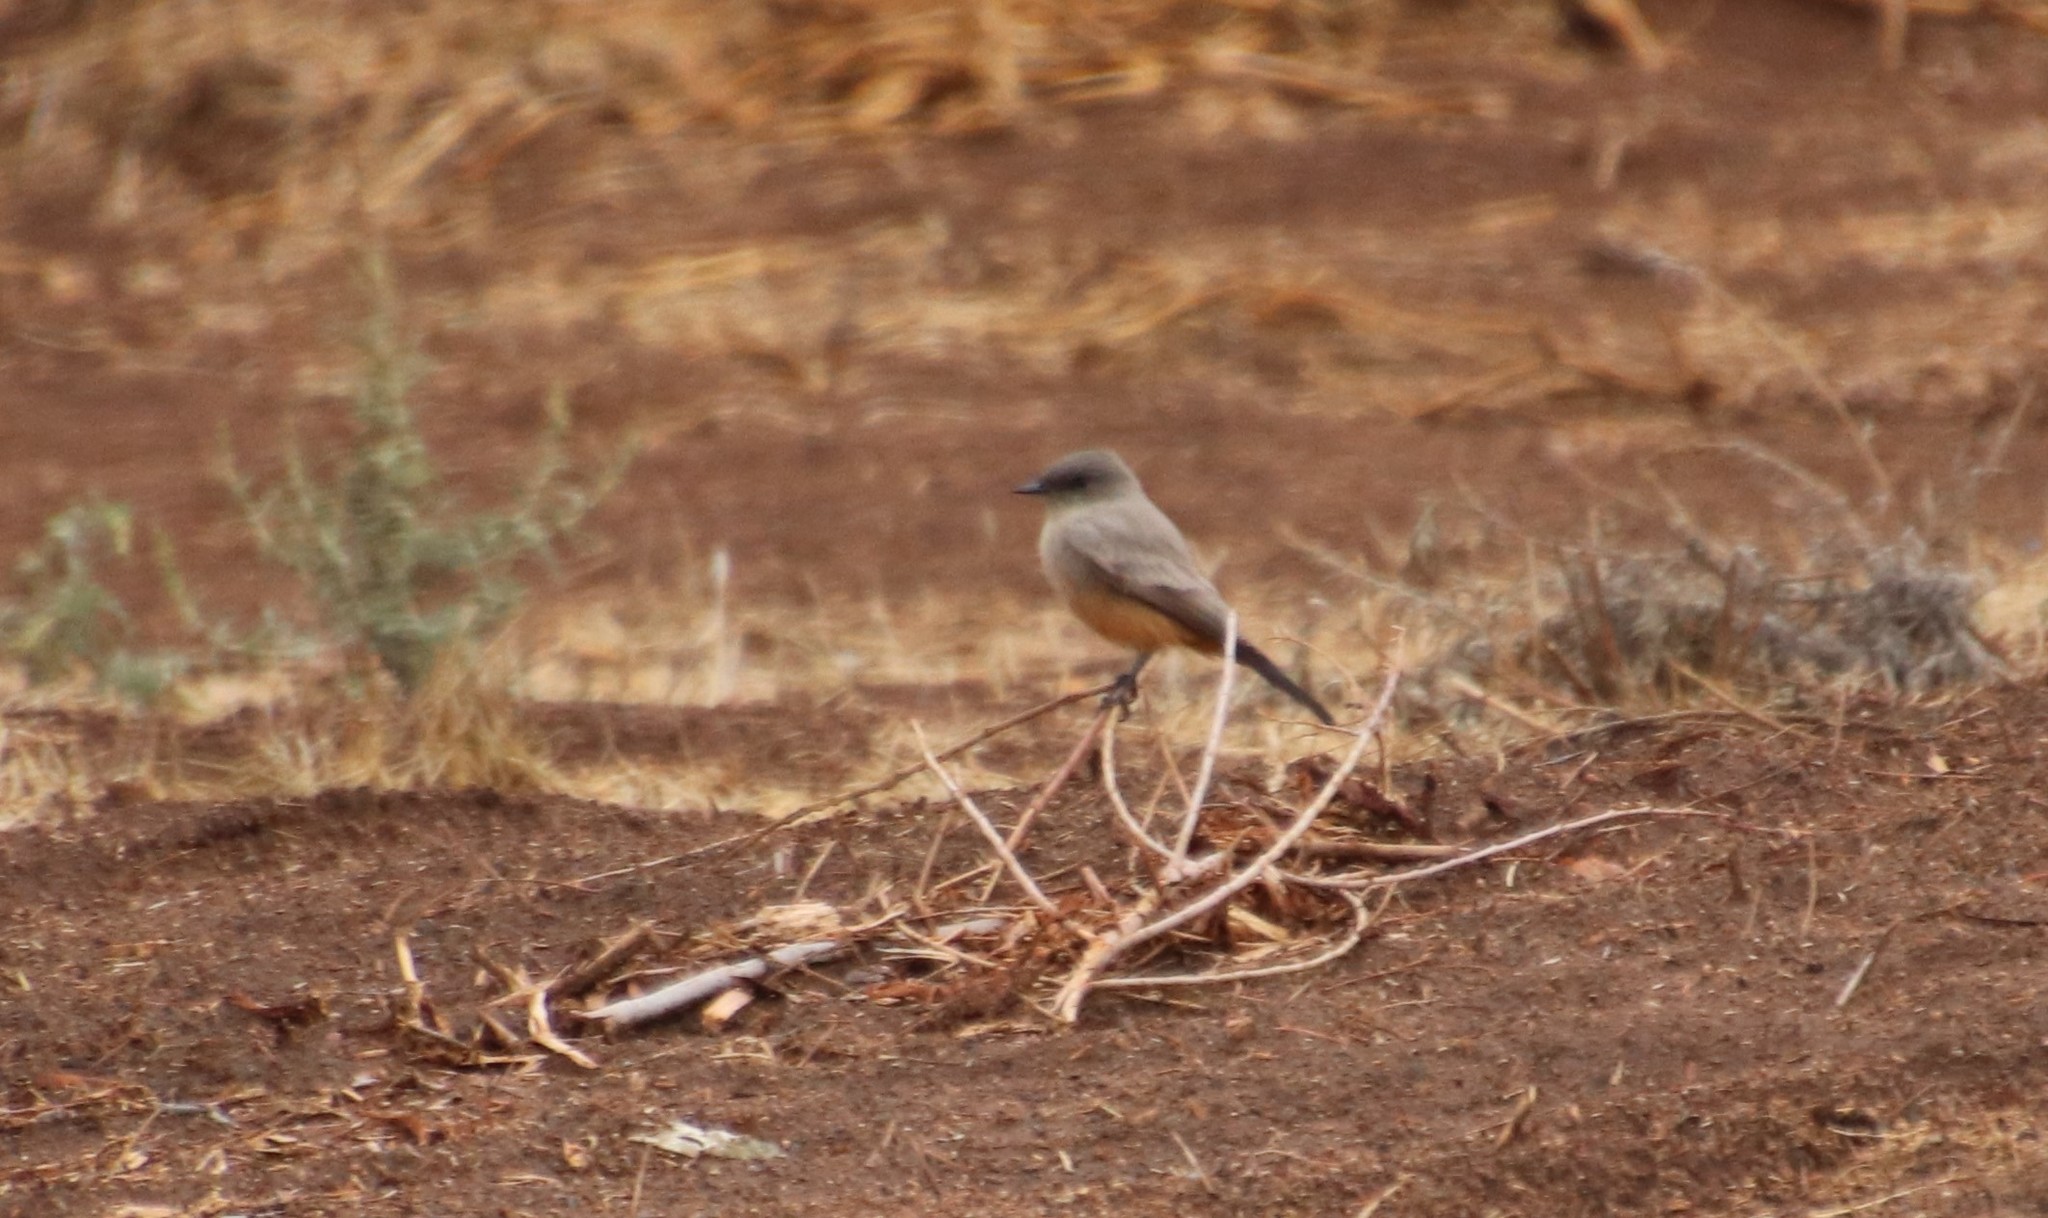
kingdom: Animalia
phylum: Chordata
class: Aves
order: Passeriformes
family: Tyrannidae
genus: Sayornis
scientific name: Sayornis saya
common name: Say's phoebe
